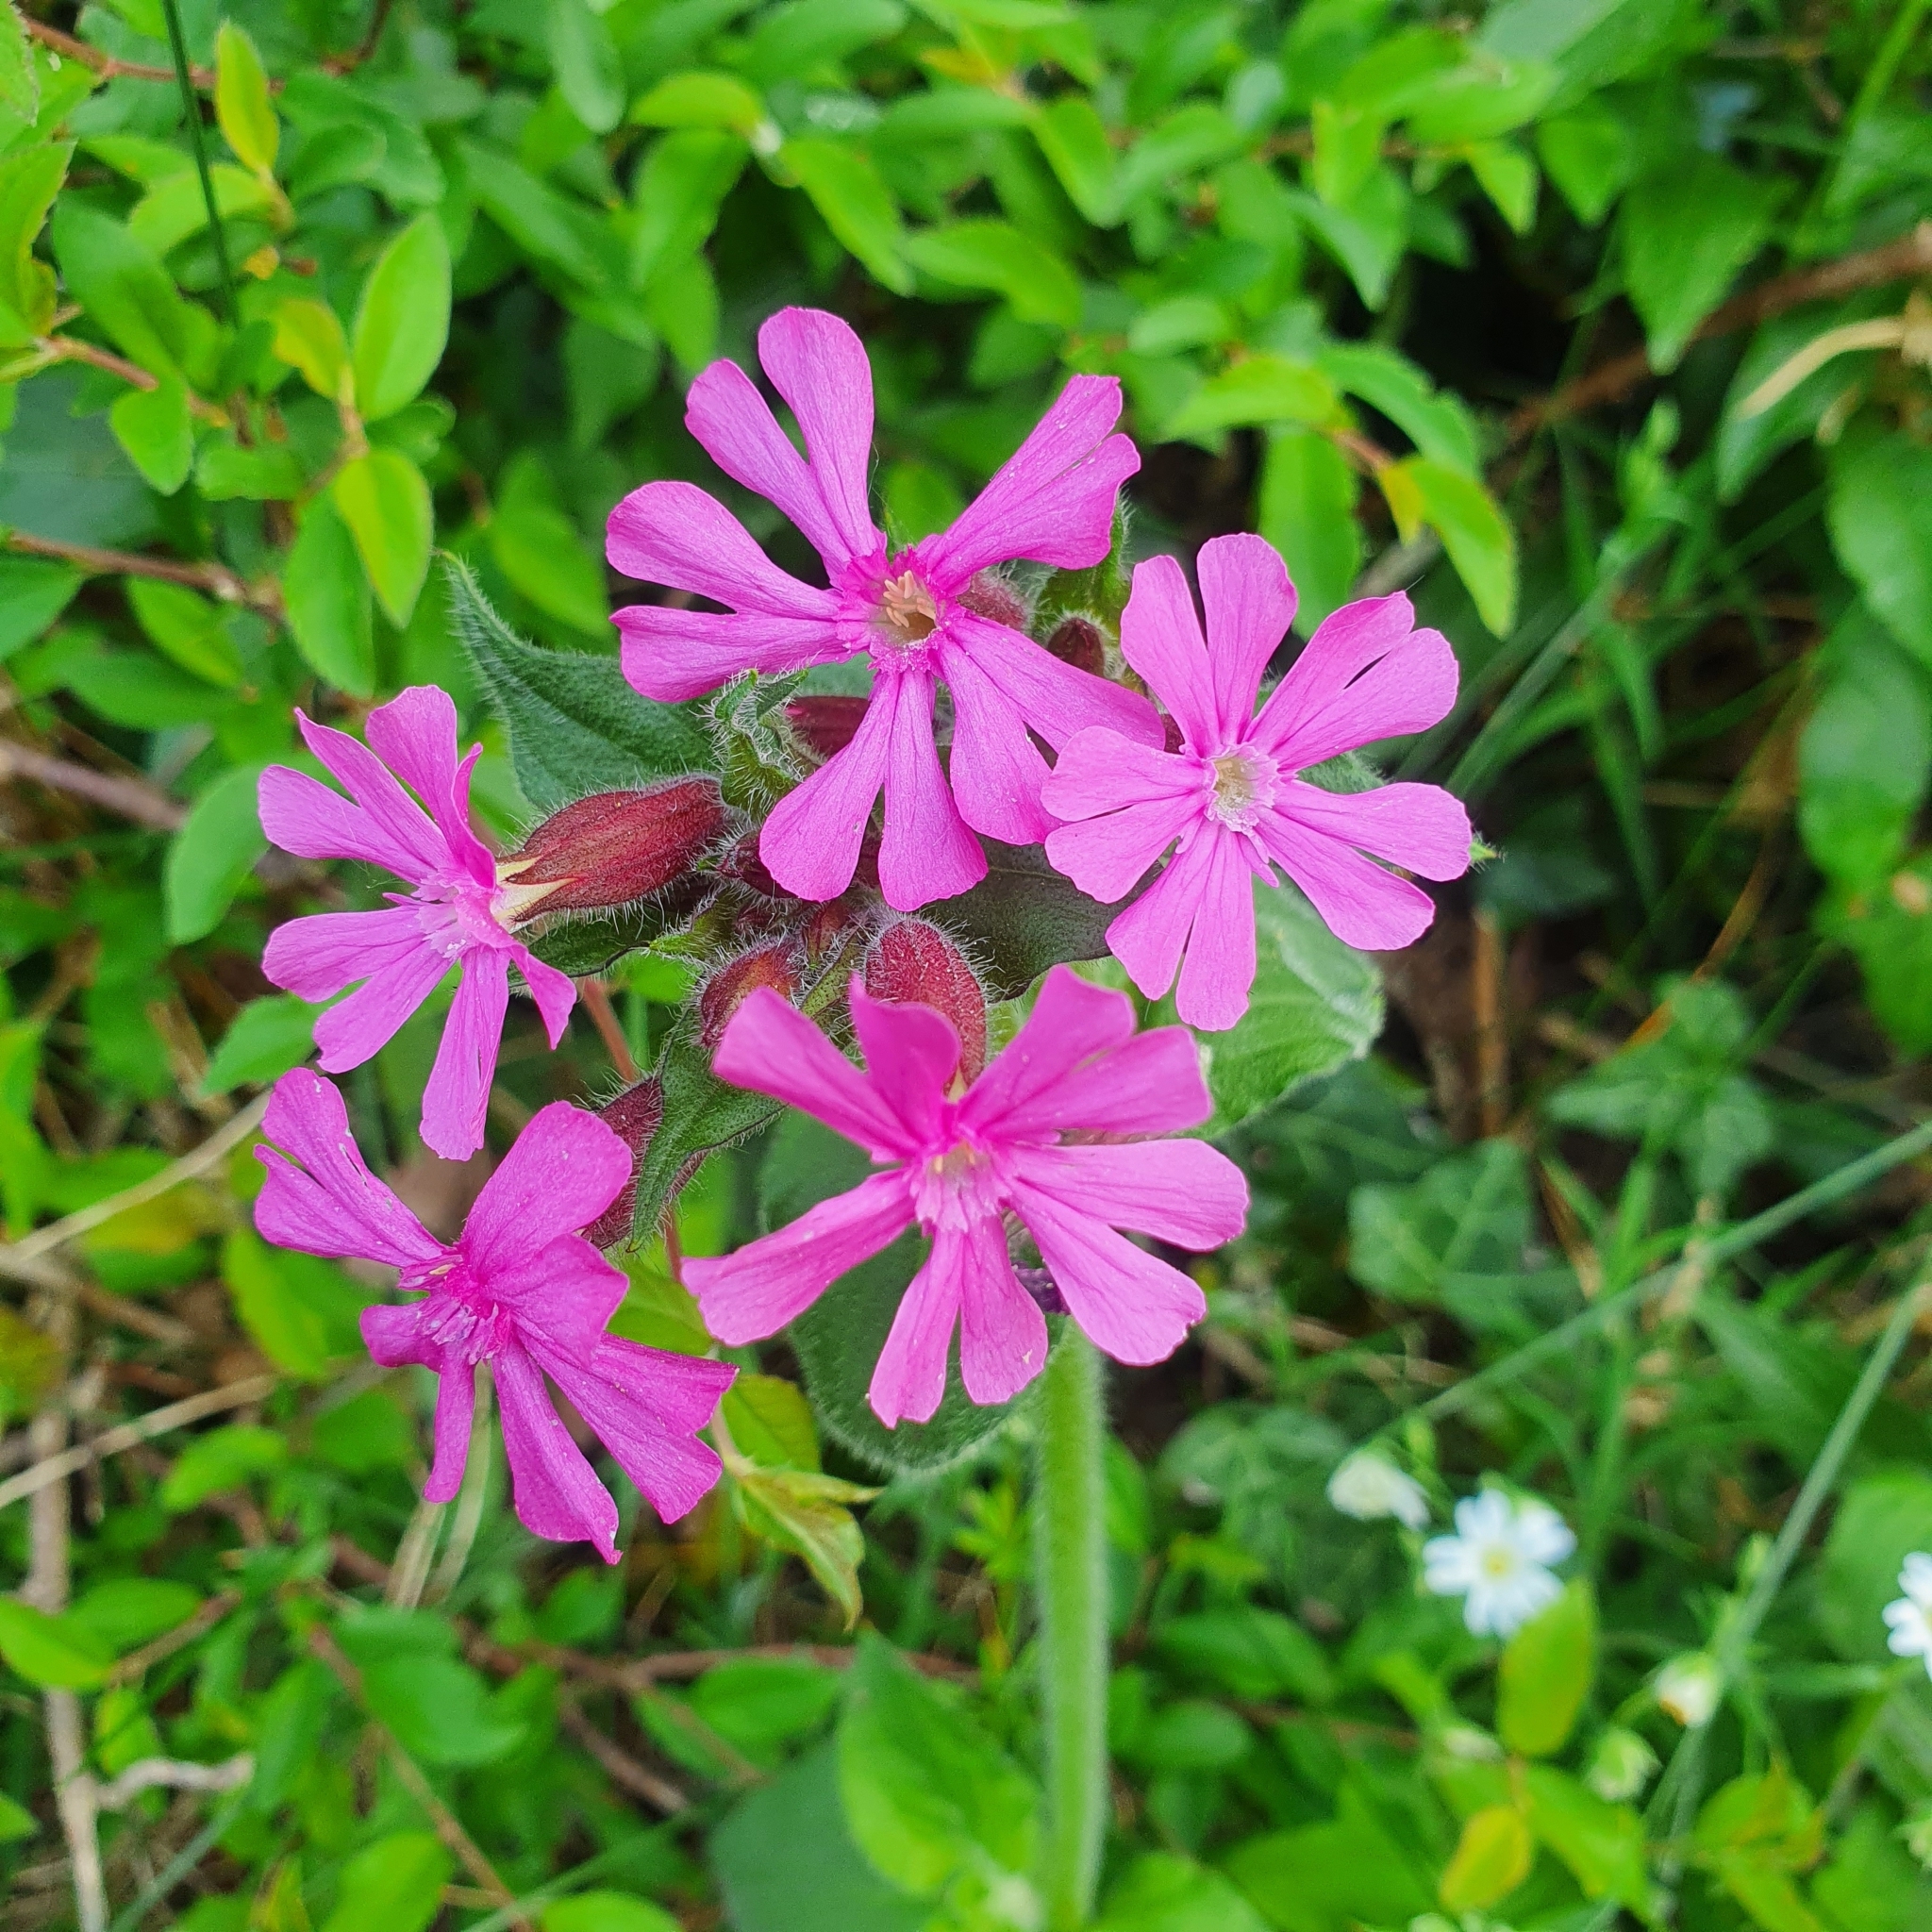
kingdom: Plantae
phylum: Tracheophyta
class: Magnoliopsida
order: Caryophyllales
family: Caryophyllaceae
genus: Silene
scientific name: Silene dioica
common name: Red campion
